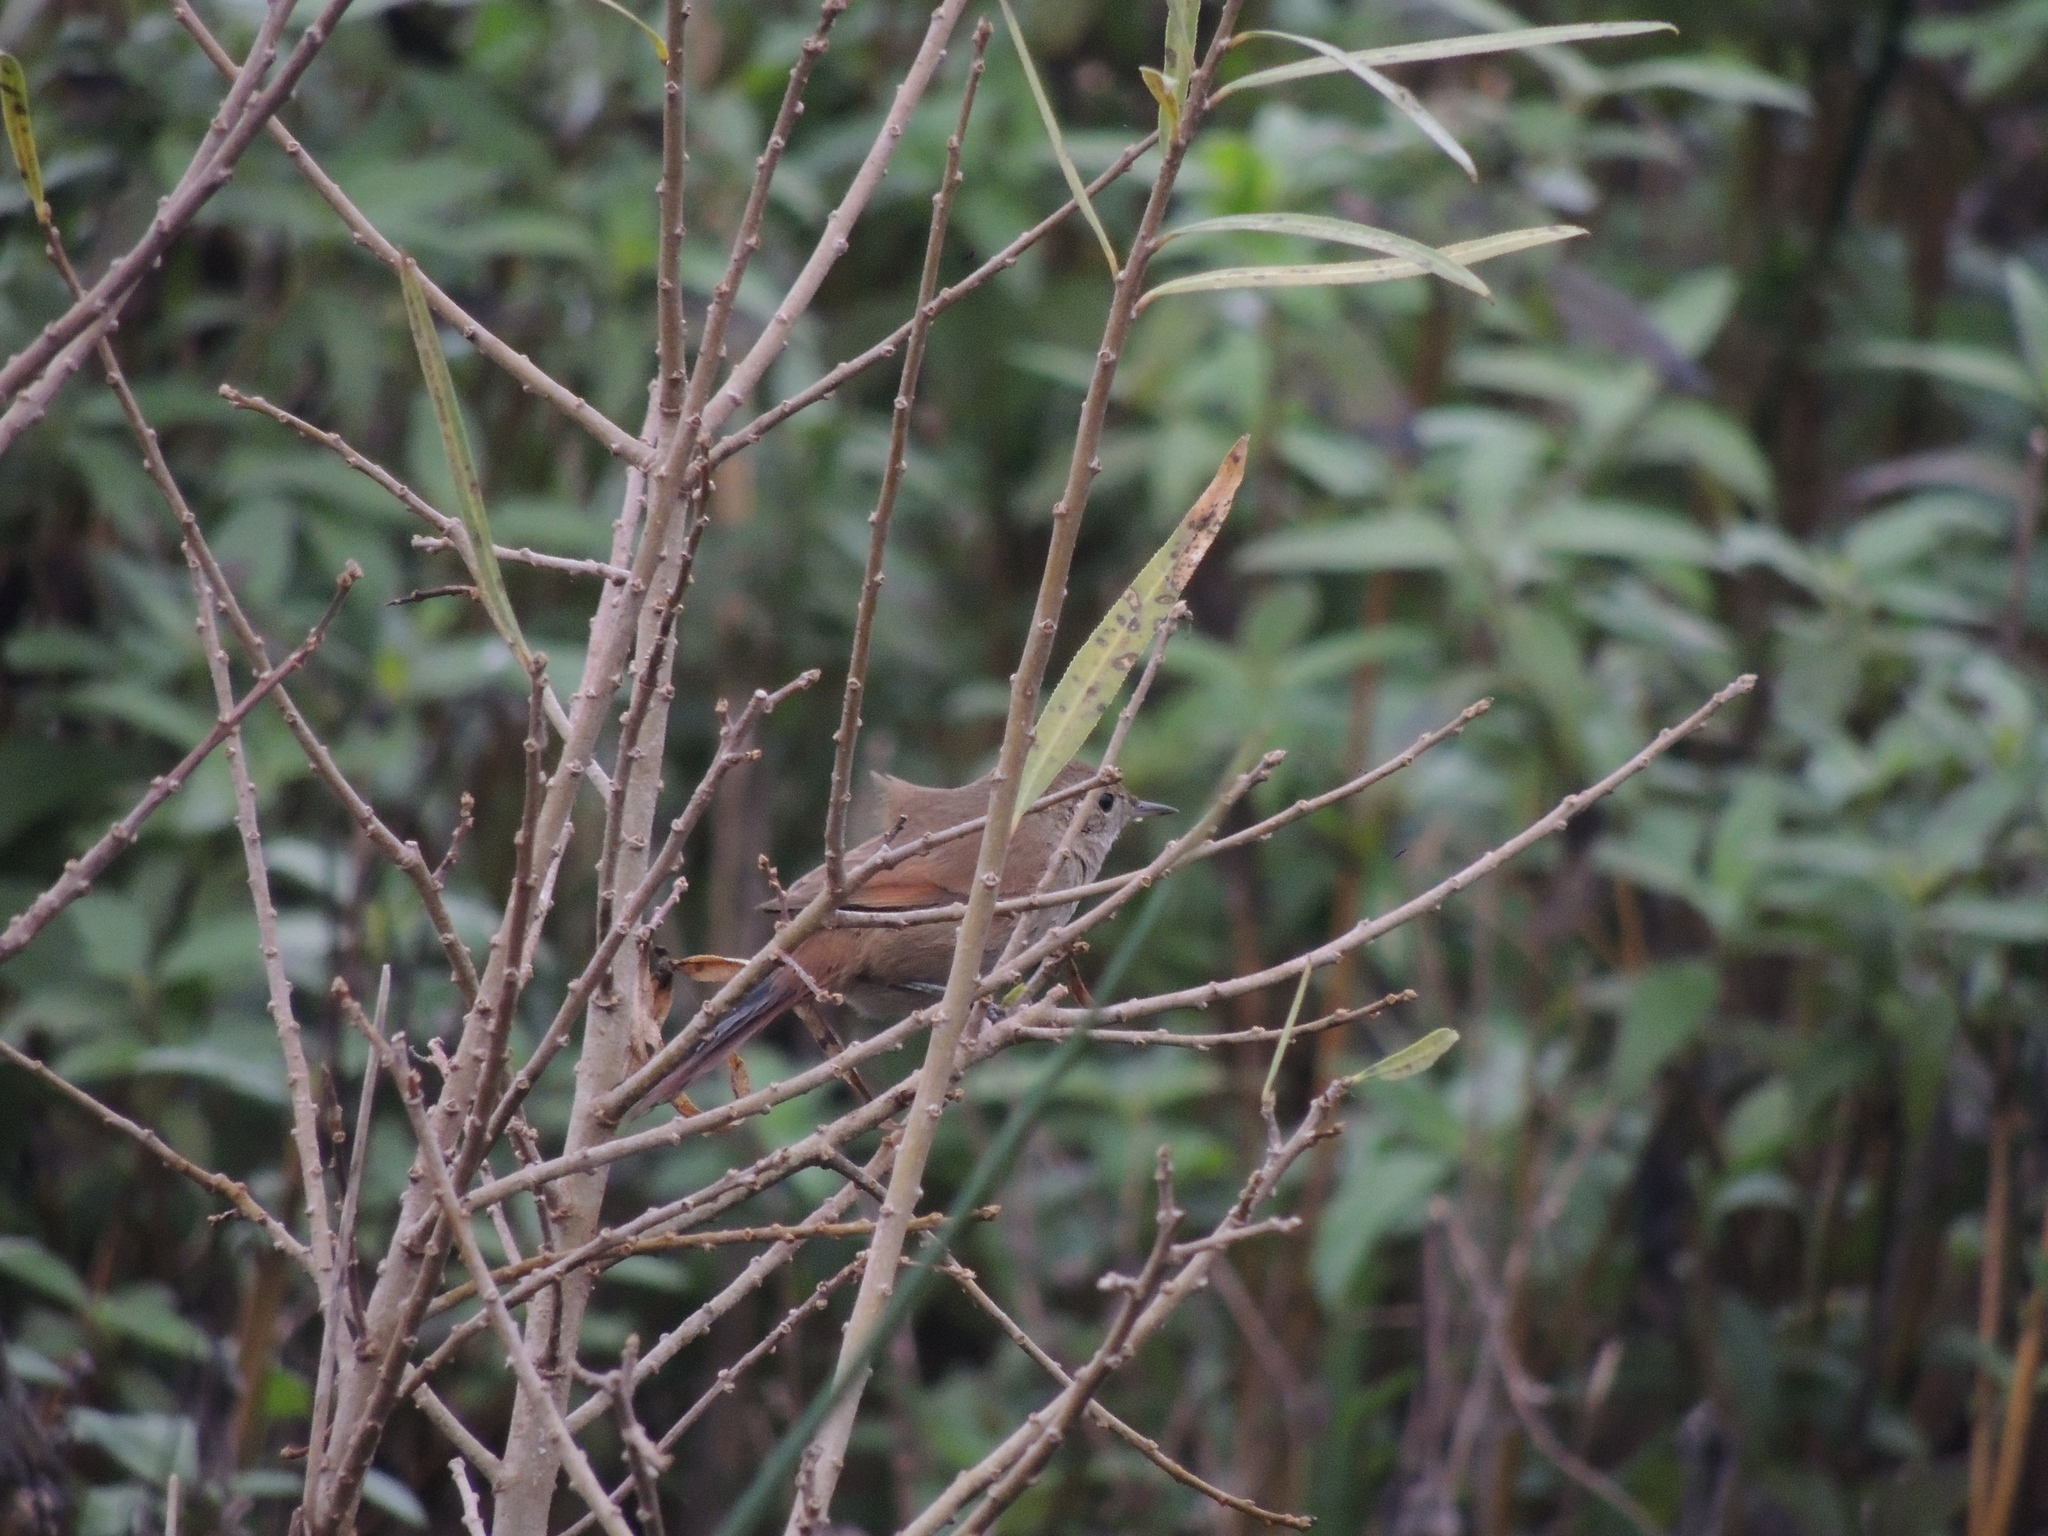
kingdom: Animalia
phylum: Chordata
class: Aves
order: Passeriformes
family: Furnariidae
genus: Asthenes
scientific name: Asthenes pyrrholeuca
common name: Sharp-billed canastero
